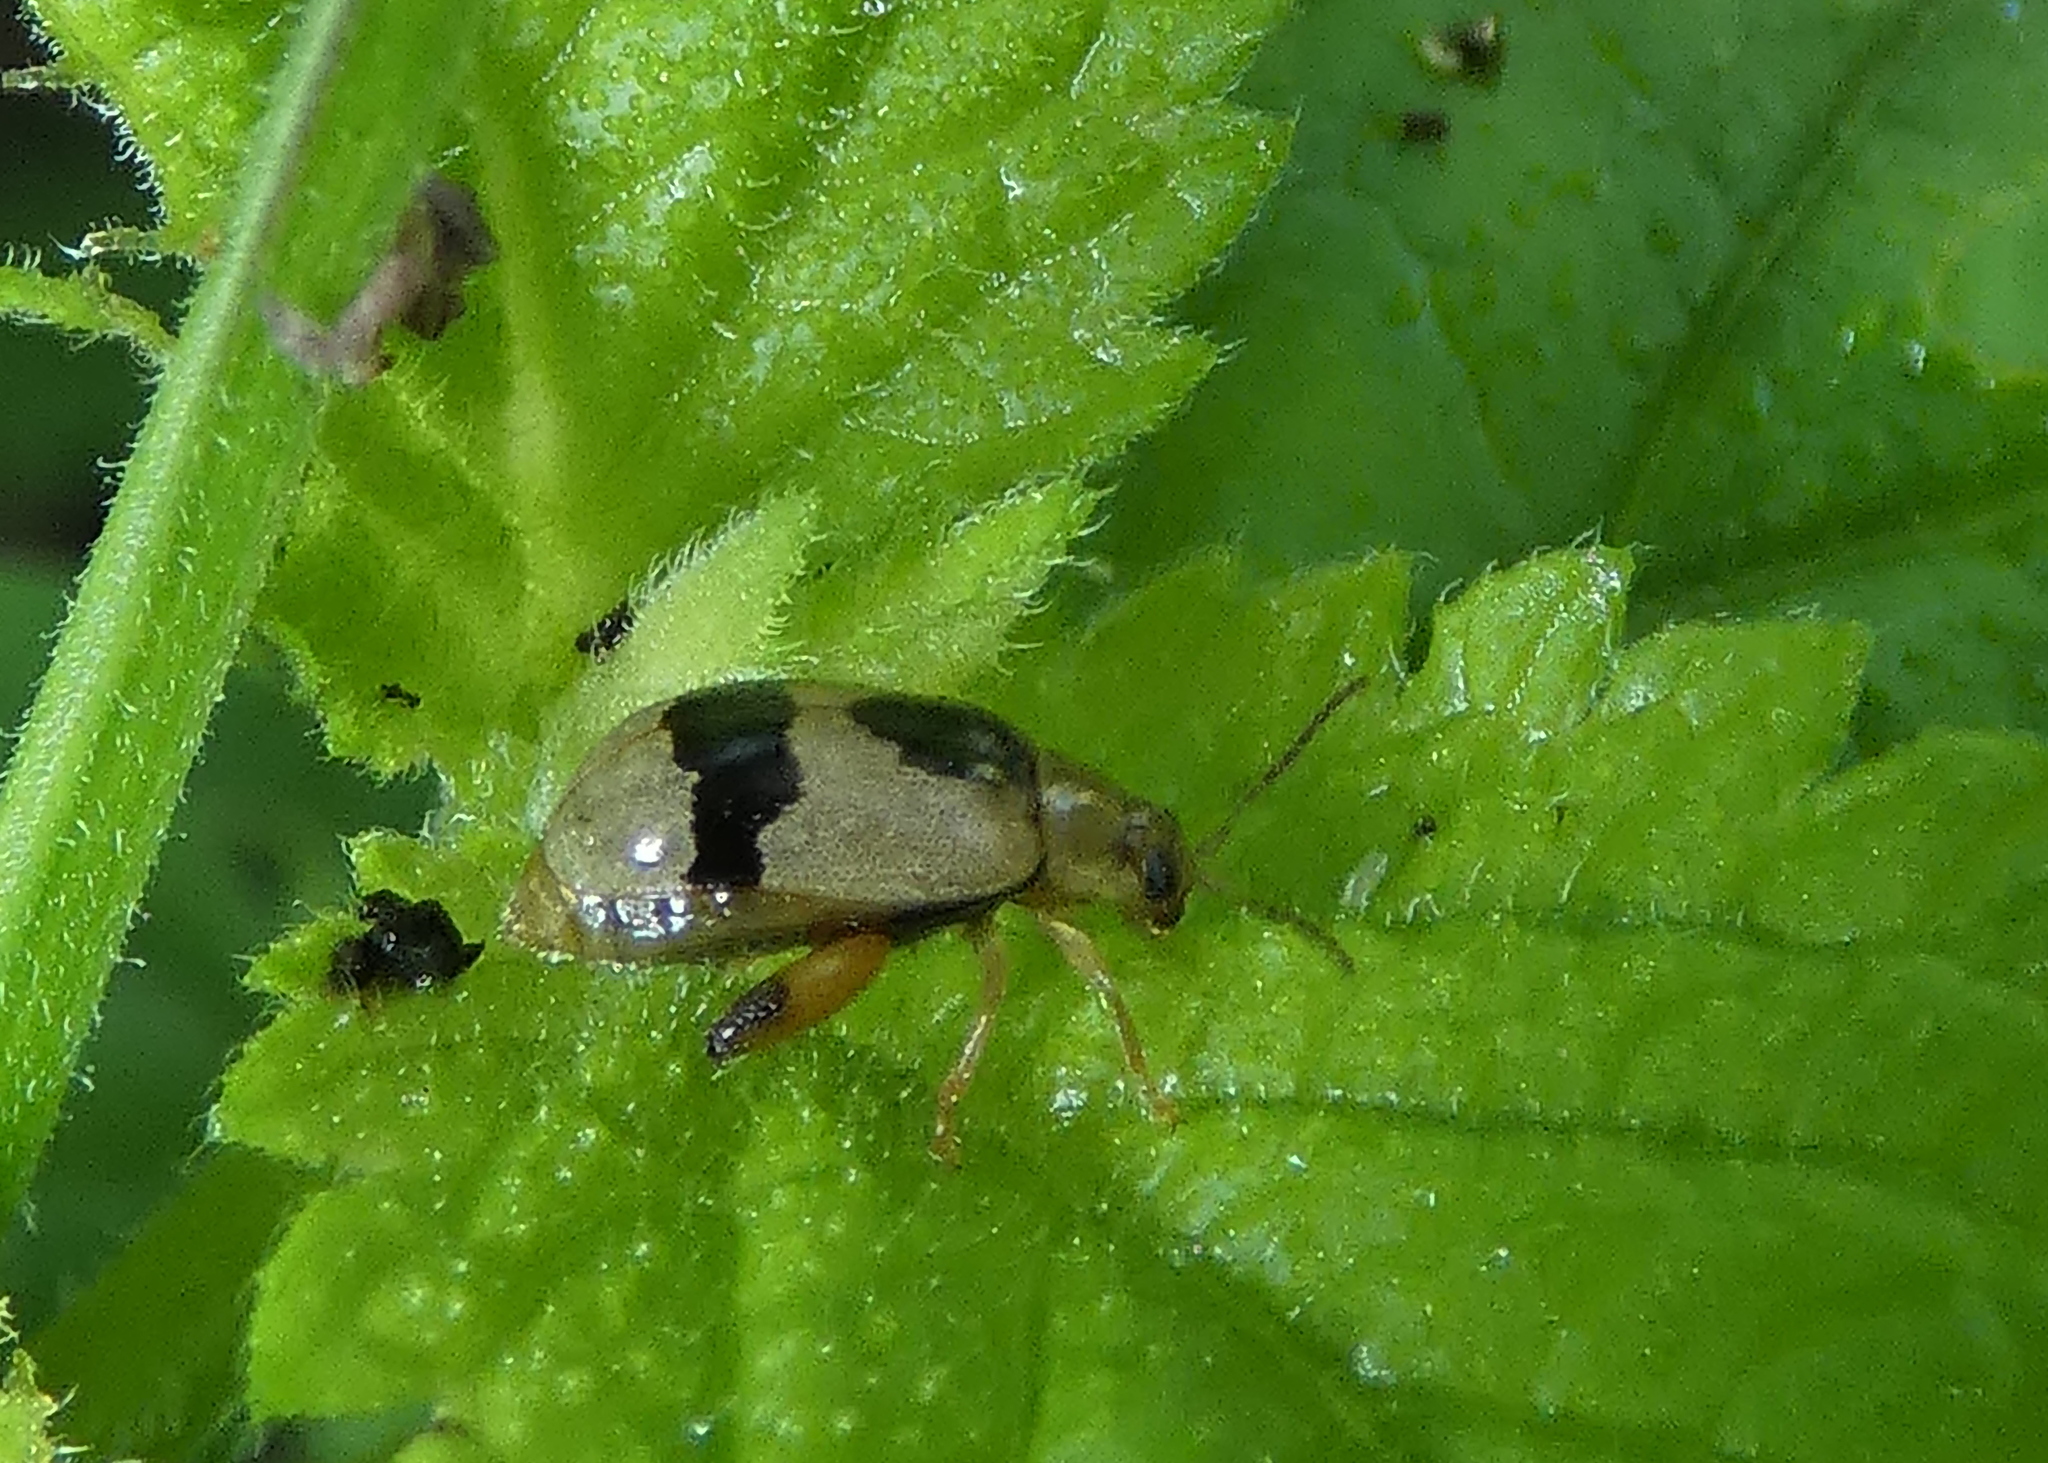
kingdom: Animalia
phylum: Arthropoda
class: Insecta
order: Coleoptera
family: Chrysomelidae
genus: Alagoasa
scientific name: Alagoasa
